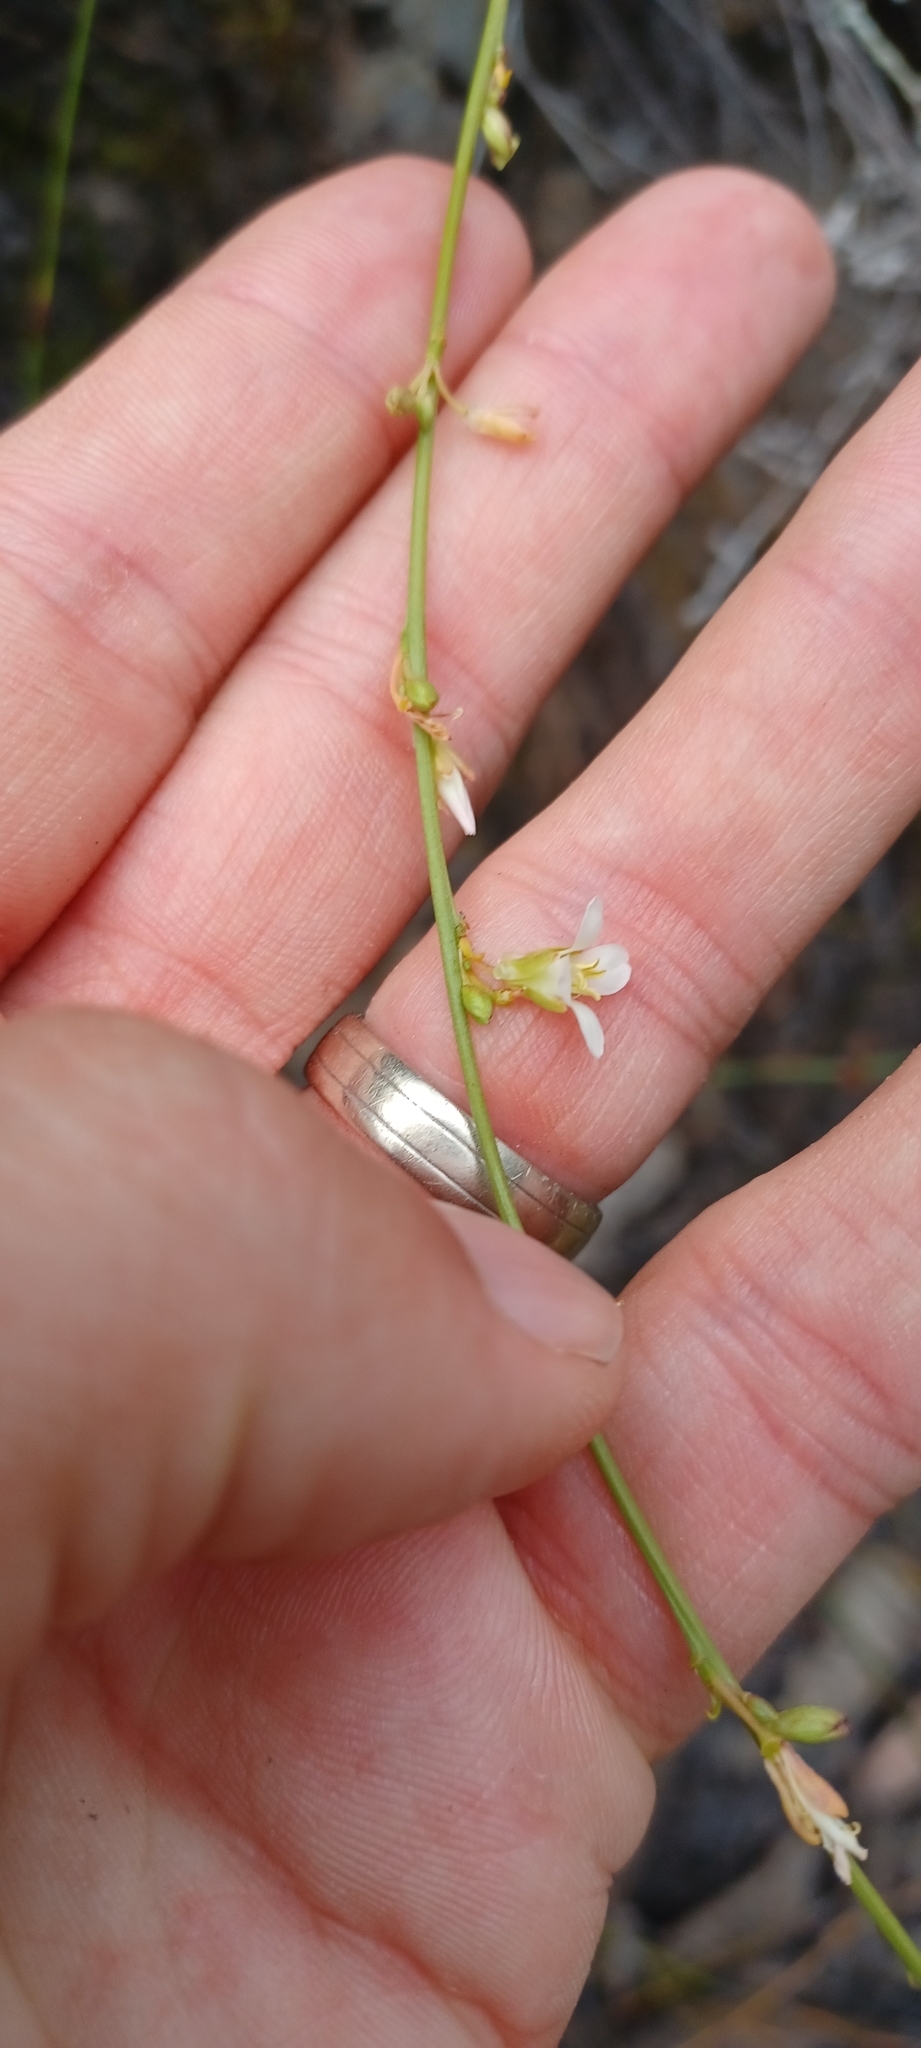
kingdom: Plantae
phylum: Tracheophyta
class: Magnoliopsida
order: Brassicales
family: Brassicaceae
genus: Heliophila
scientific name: Heliophila scoparia
